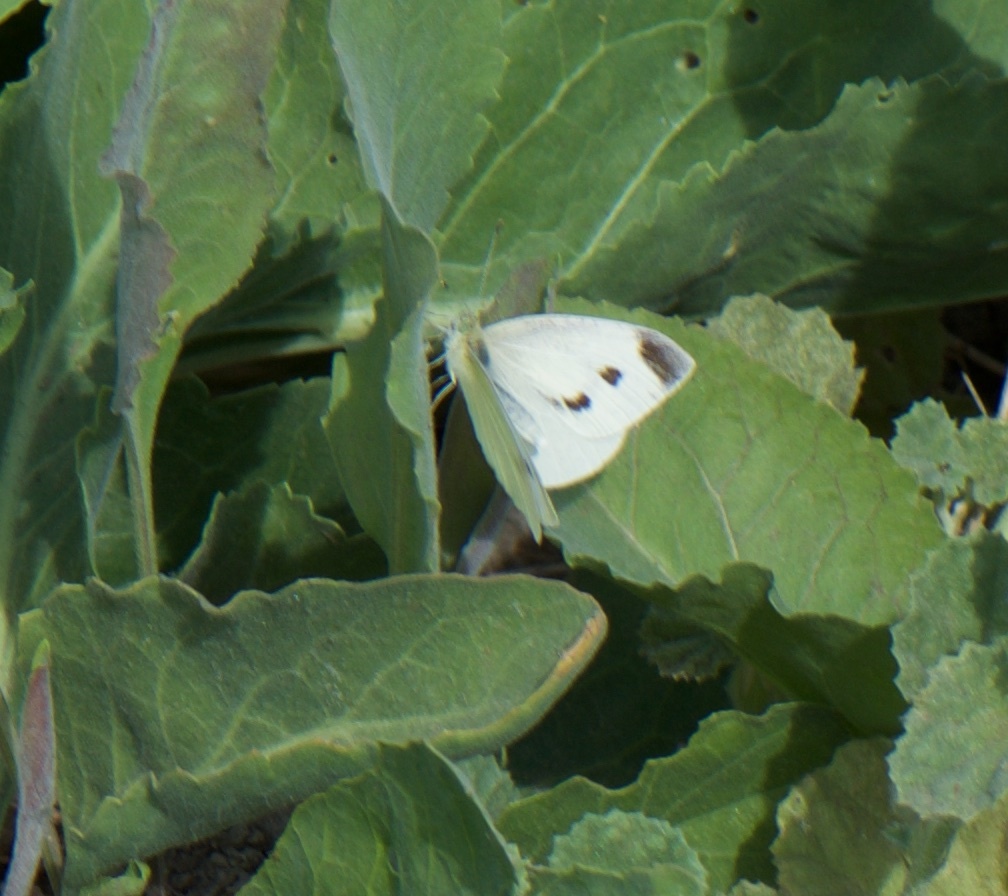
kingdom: Animalia
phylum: Arthropoda
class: Insecta
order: Lepidoptera
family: Pieridae
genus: Pieris
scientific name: Pieris rapae
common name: Small white
